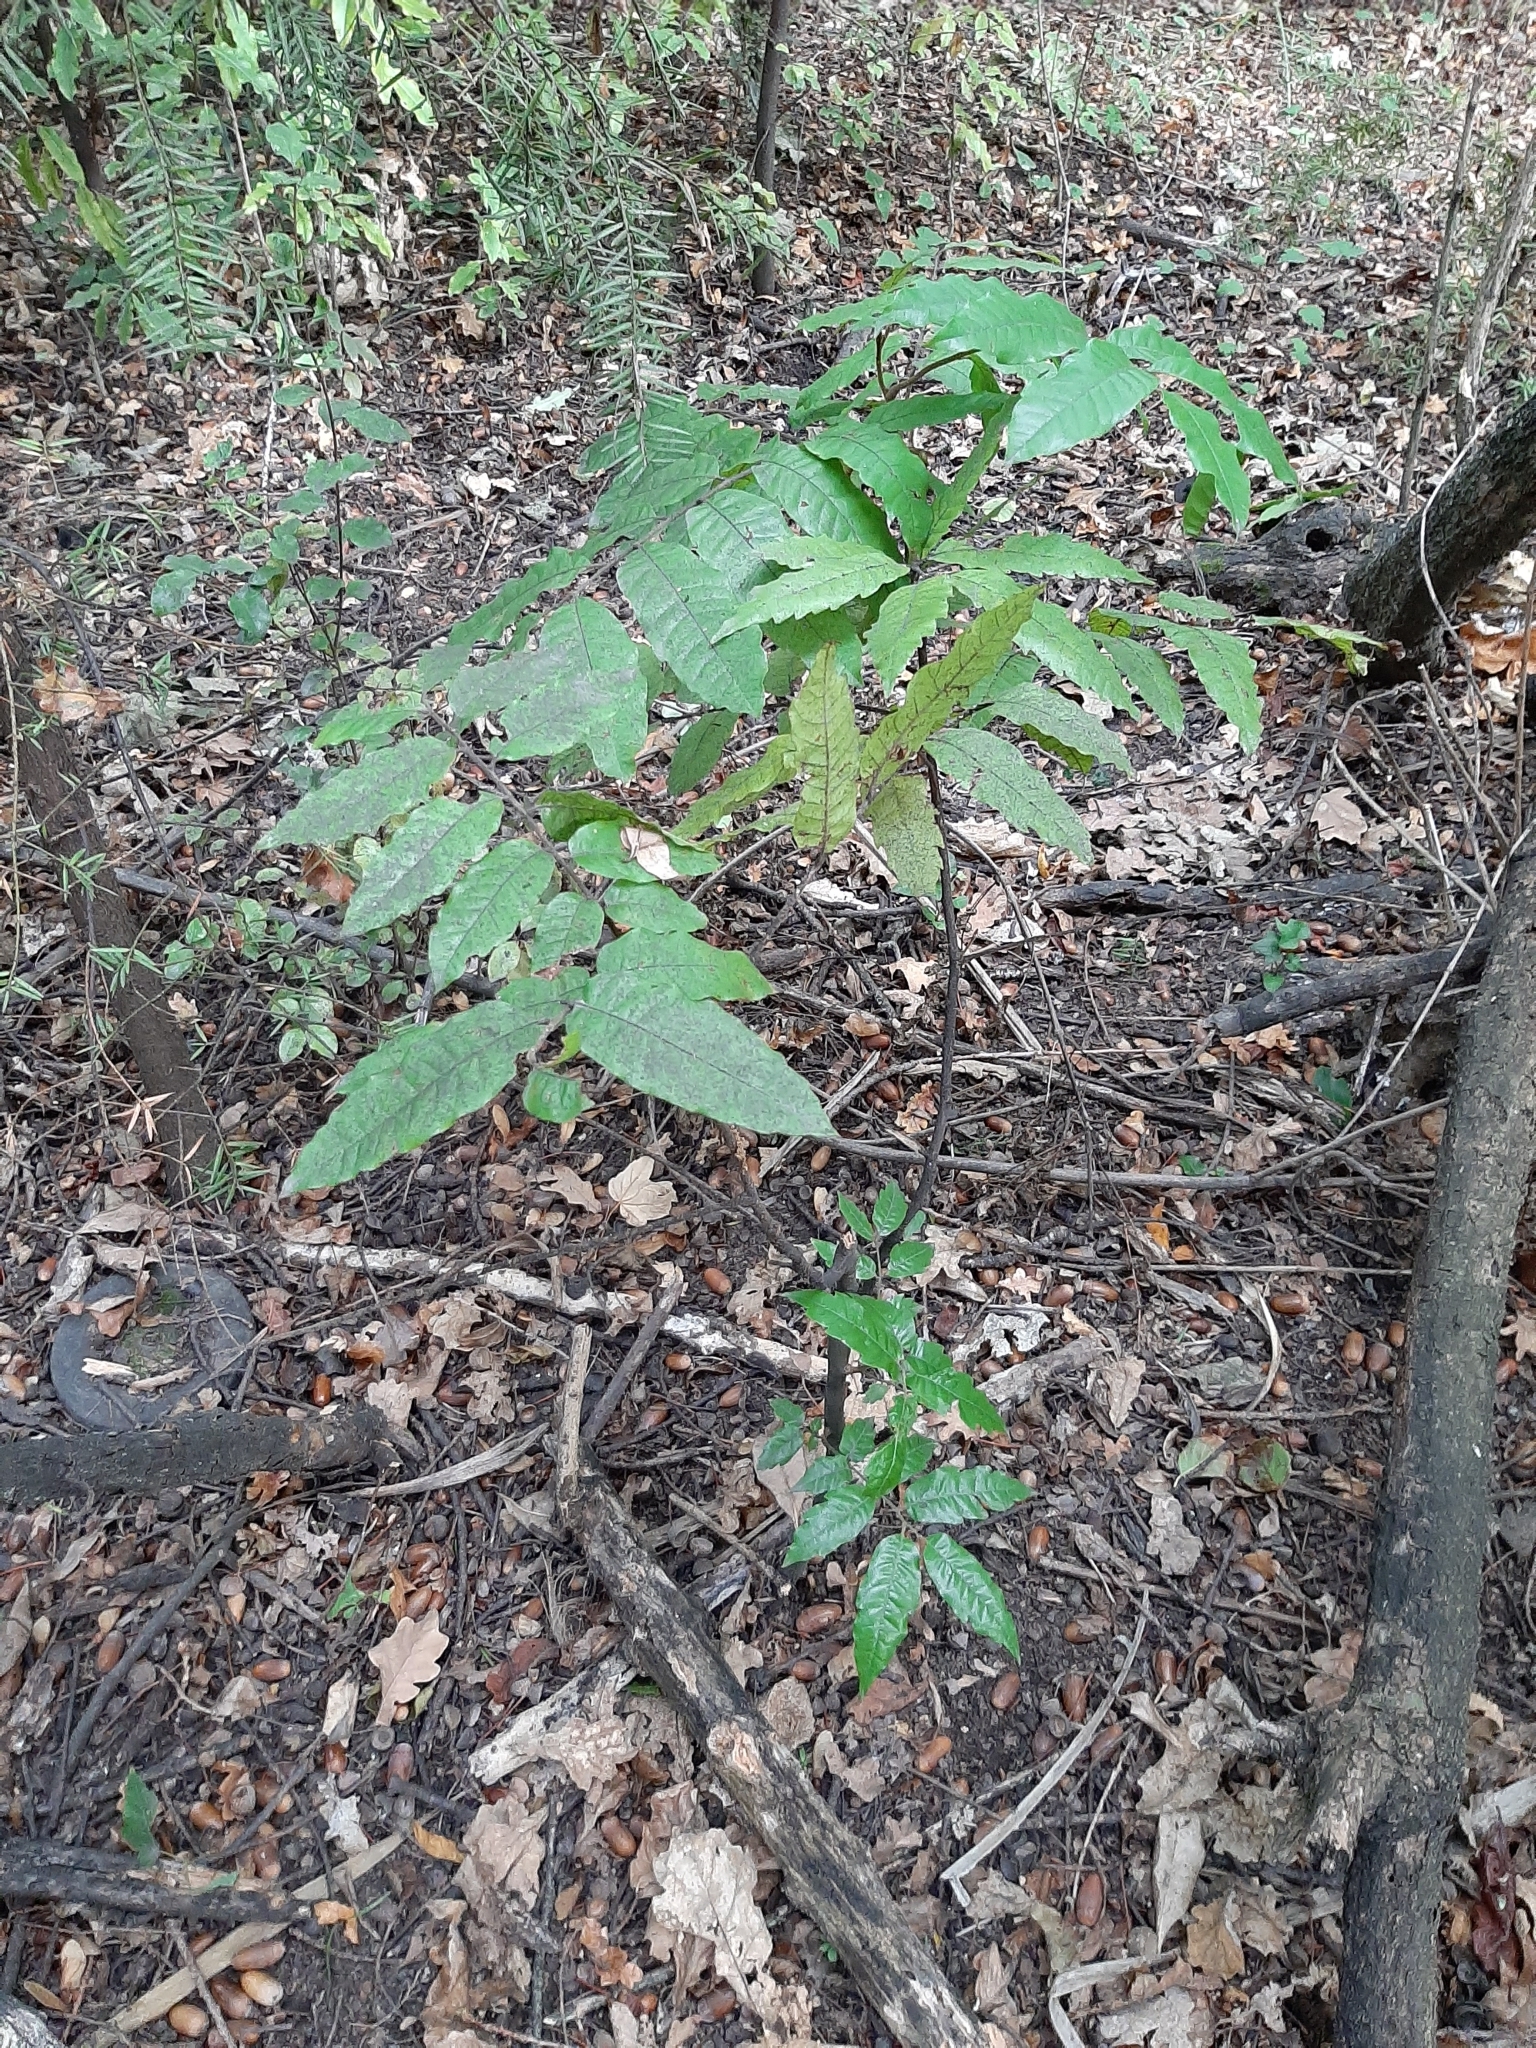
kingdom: Plantae
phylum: Tracheophyta
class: Magnoliopsida
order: Sapindales
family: Sapindaceae
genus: Alectryon
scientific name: Alectryon excelsus
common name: Three kings titoki
